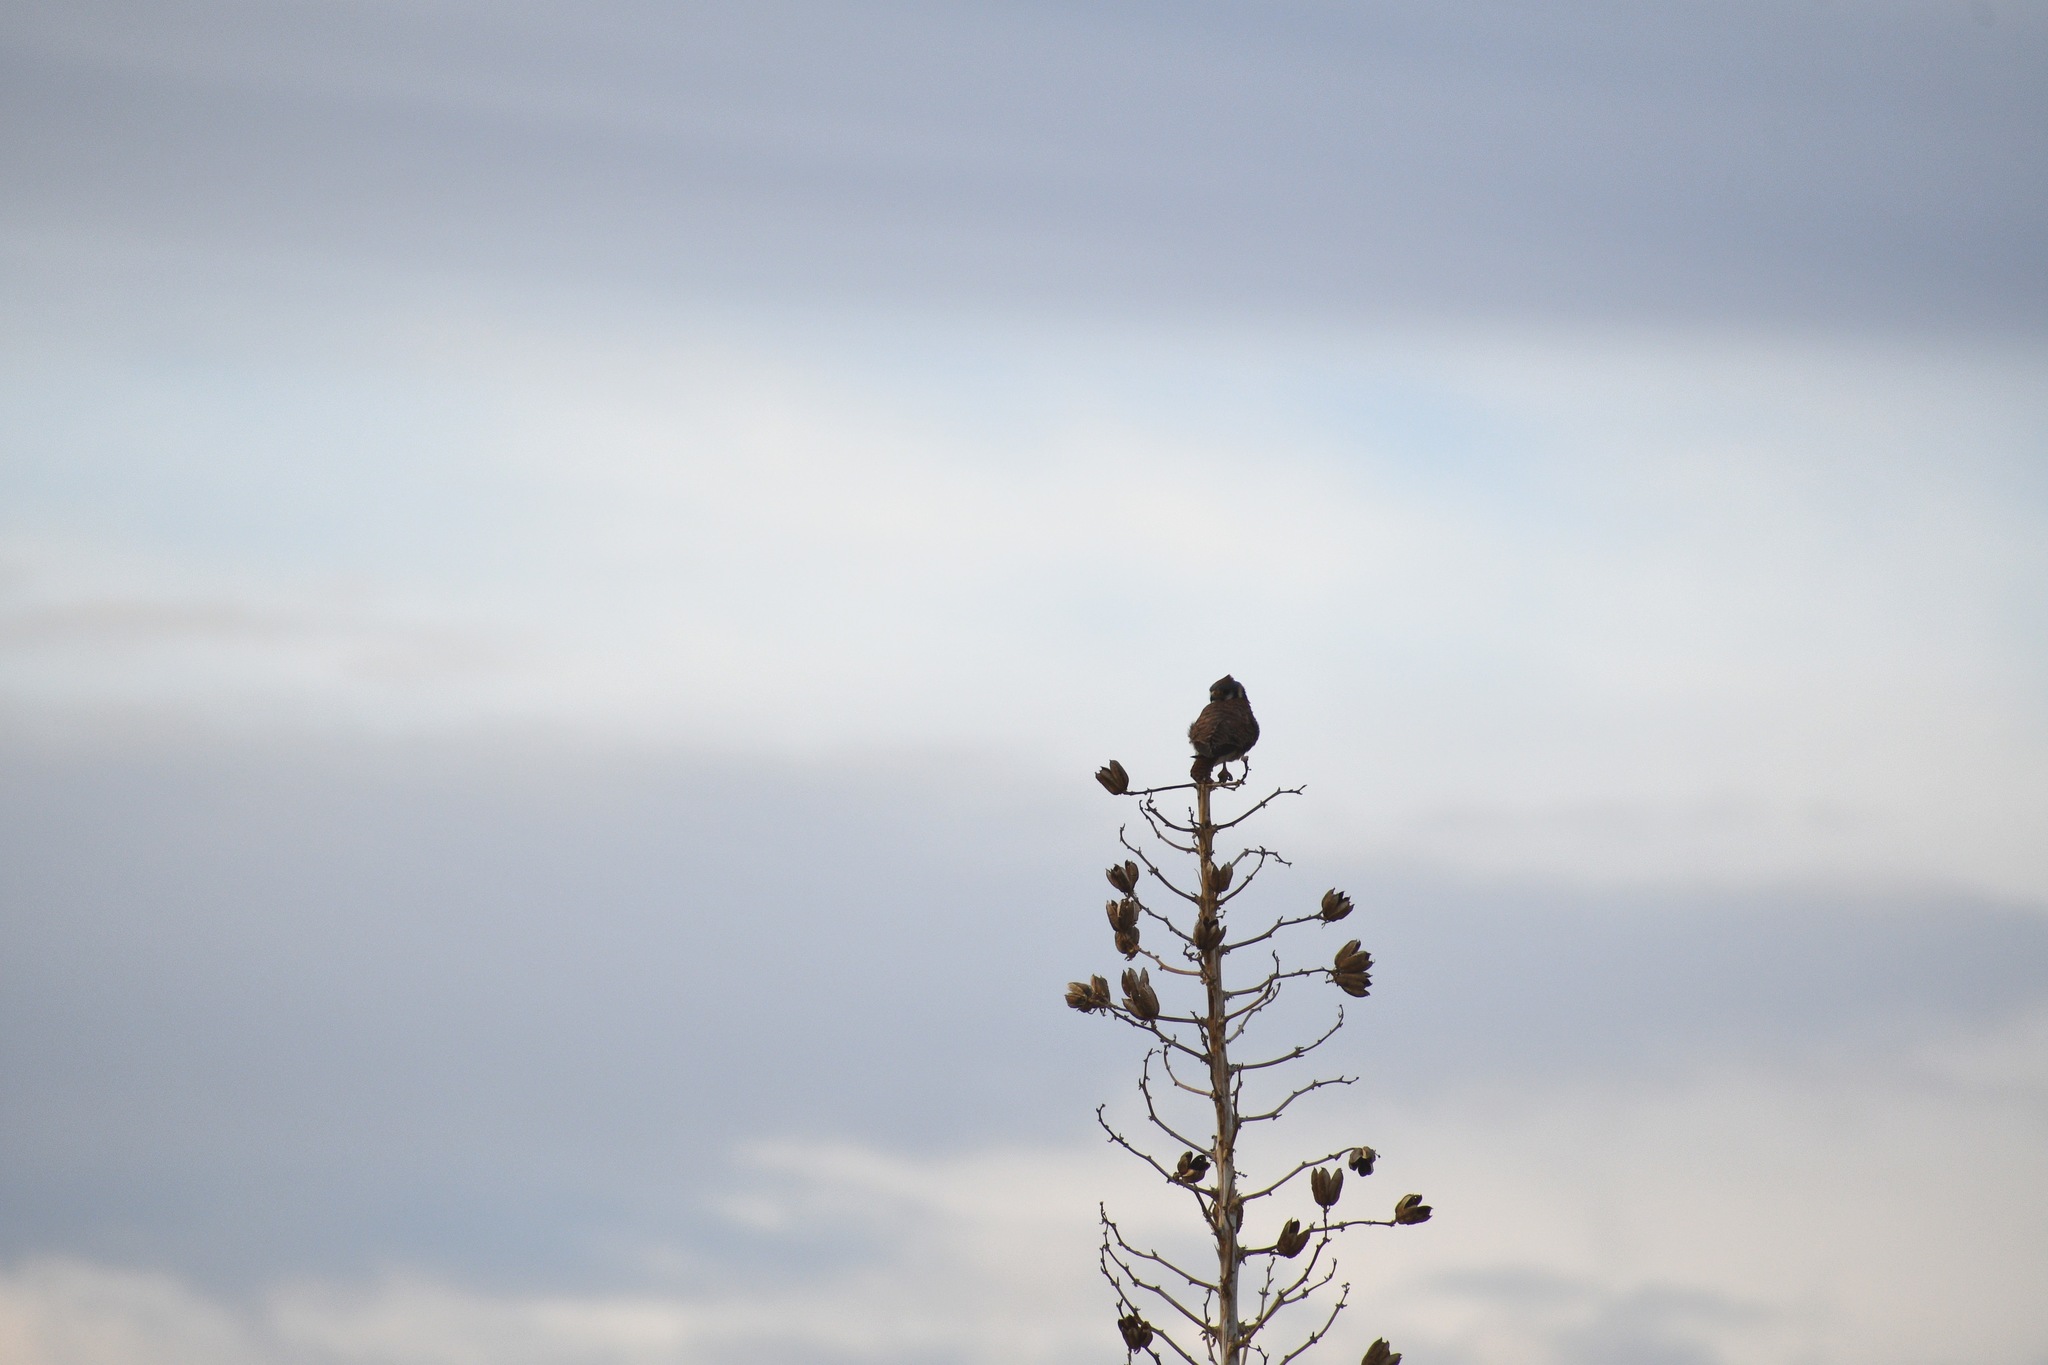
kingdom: Animalia
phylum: Chordata
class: Aves
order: Falconiformes
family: Falconidae
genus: Falco
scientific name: Falco sparverius
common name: American kestrel
